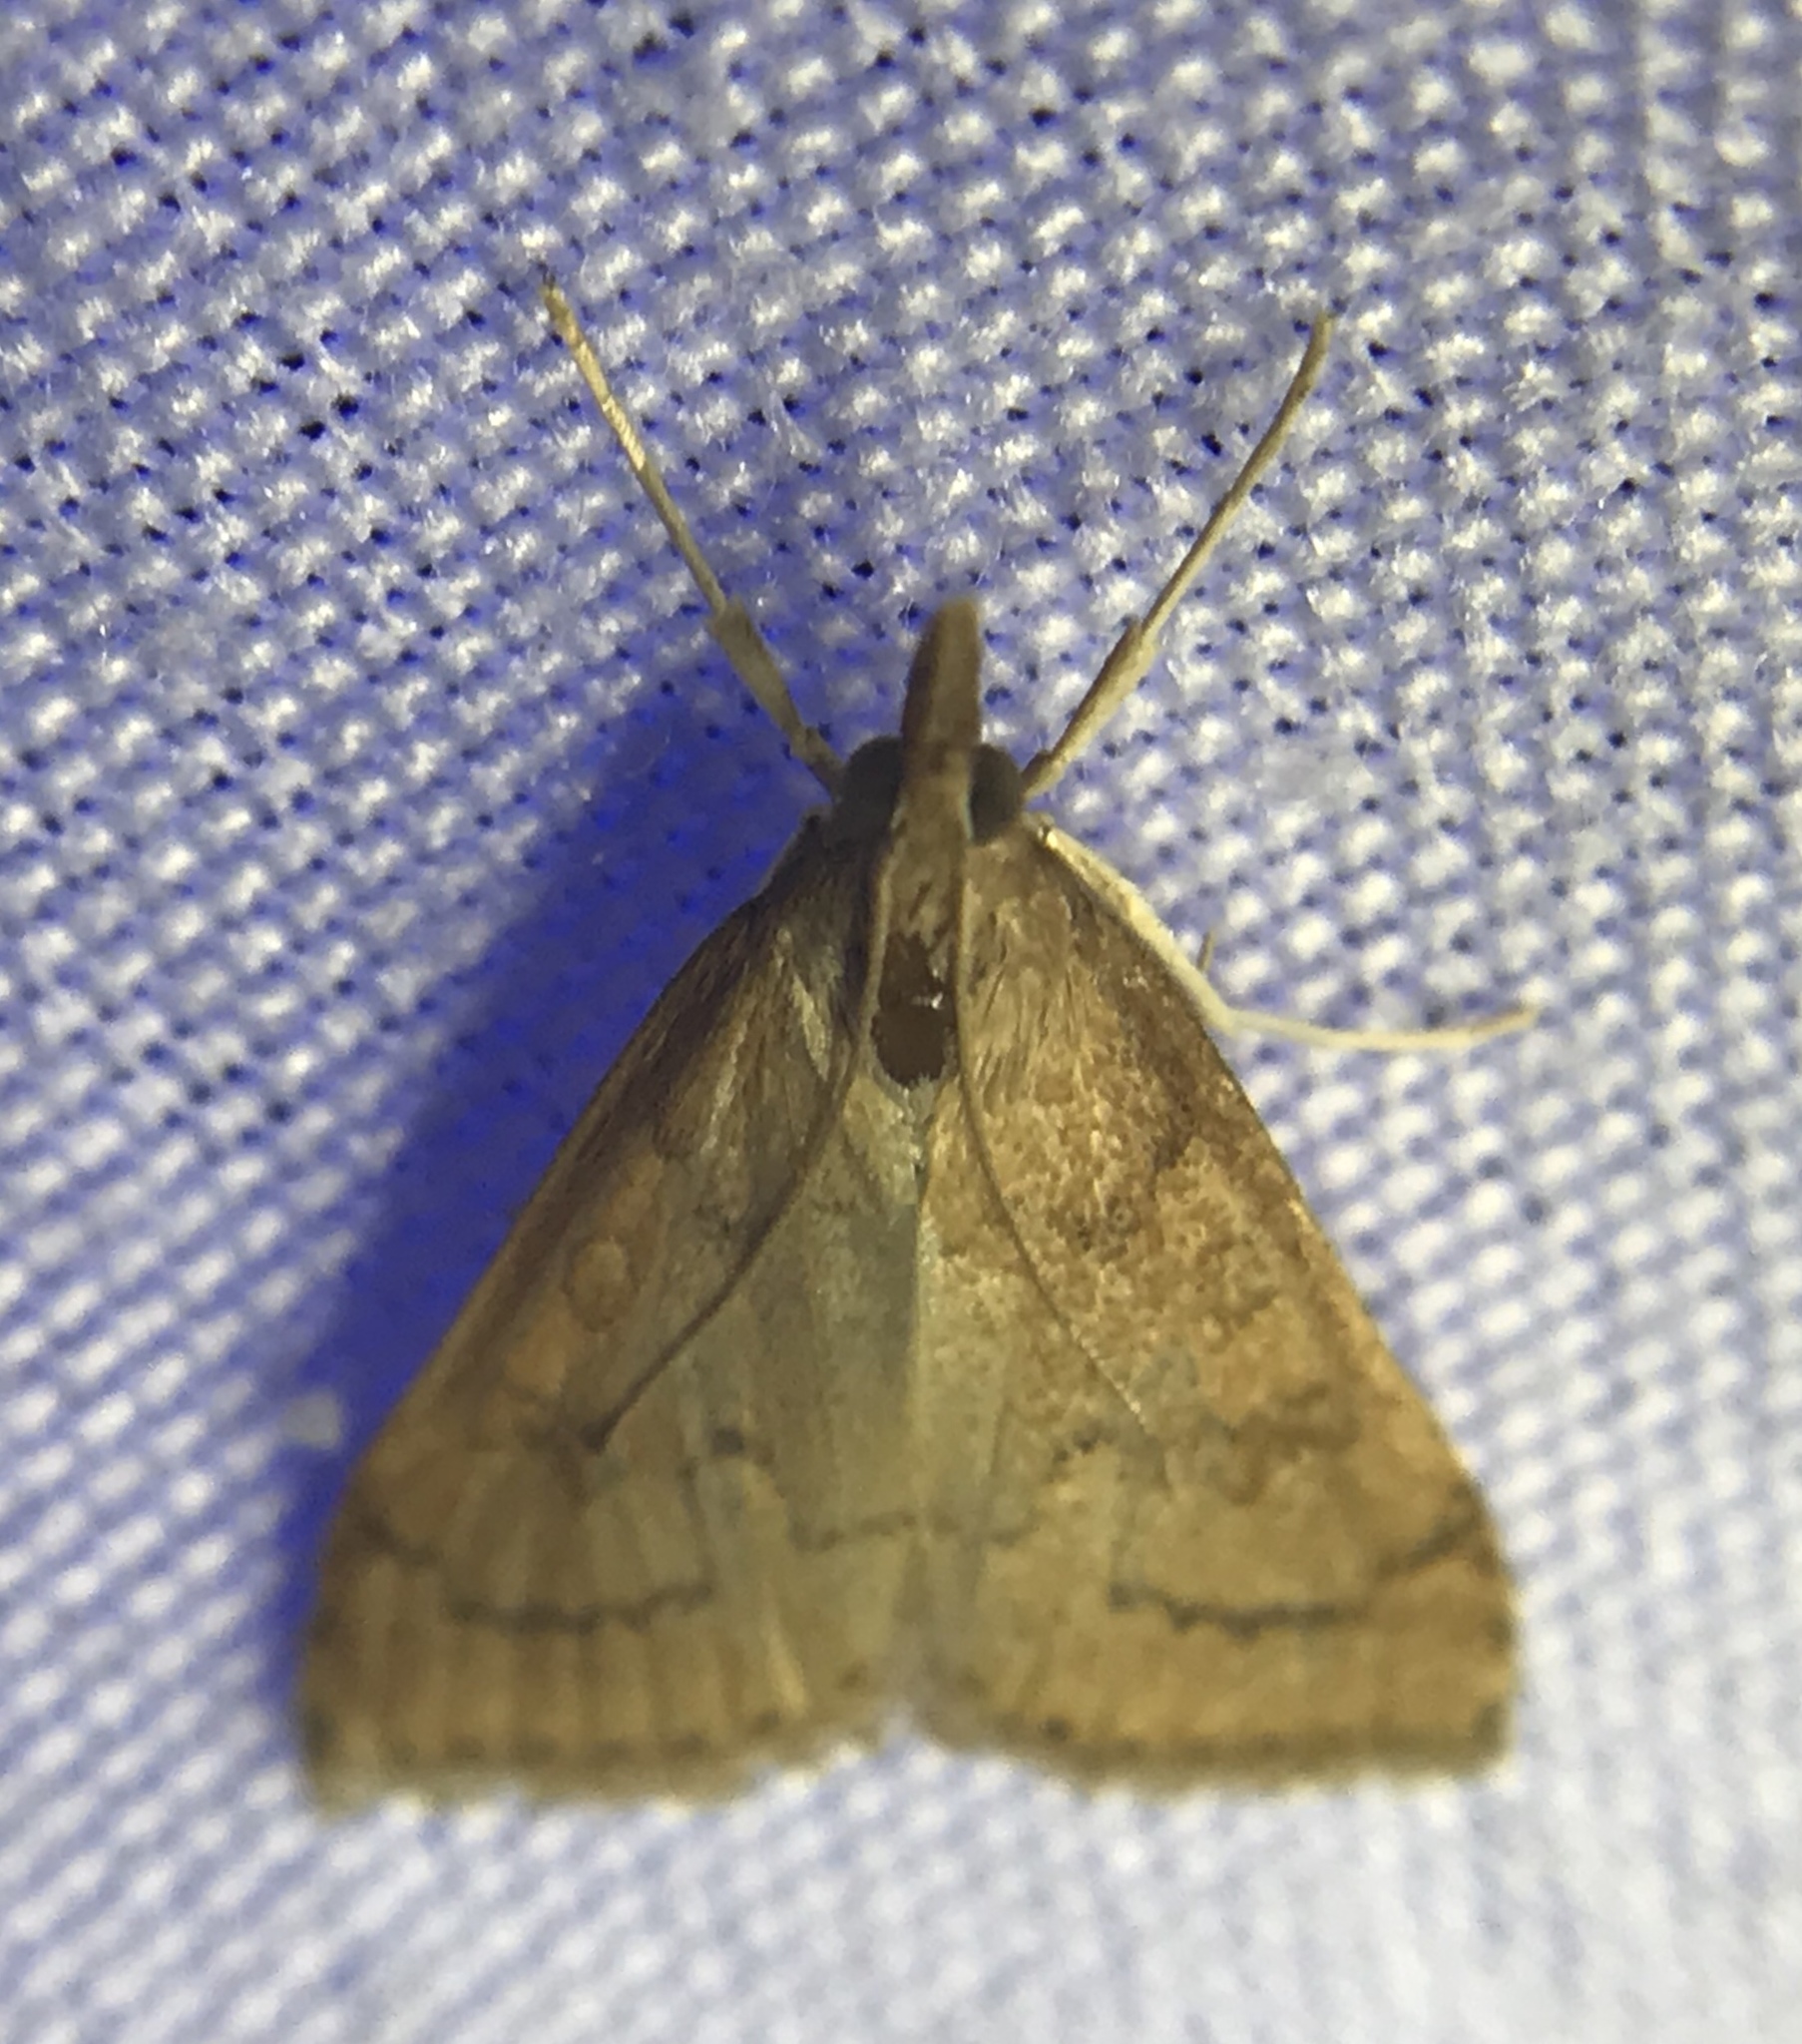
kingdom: Animalia
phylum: Arthropoda
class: Insecta
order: Lepidoptera
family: Crambidae
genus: Udea
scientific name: Udea rubigalis
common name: Celery leaftier moth
